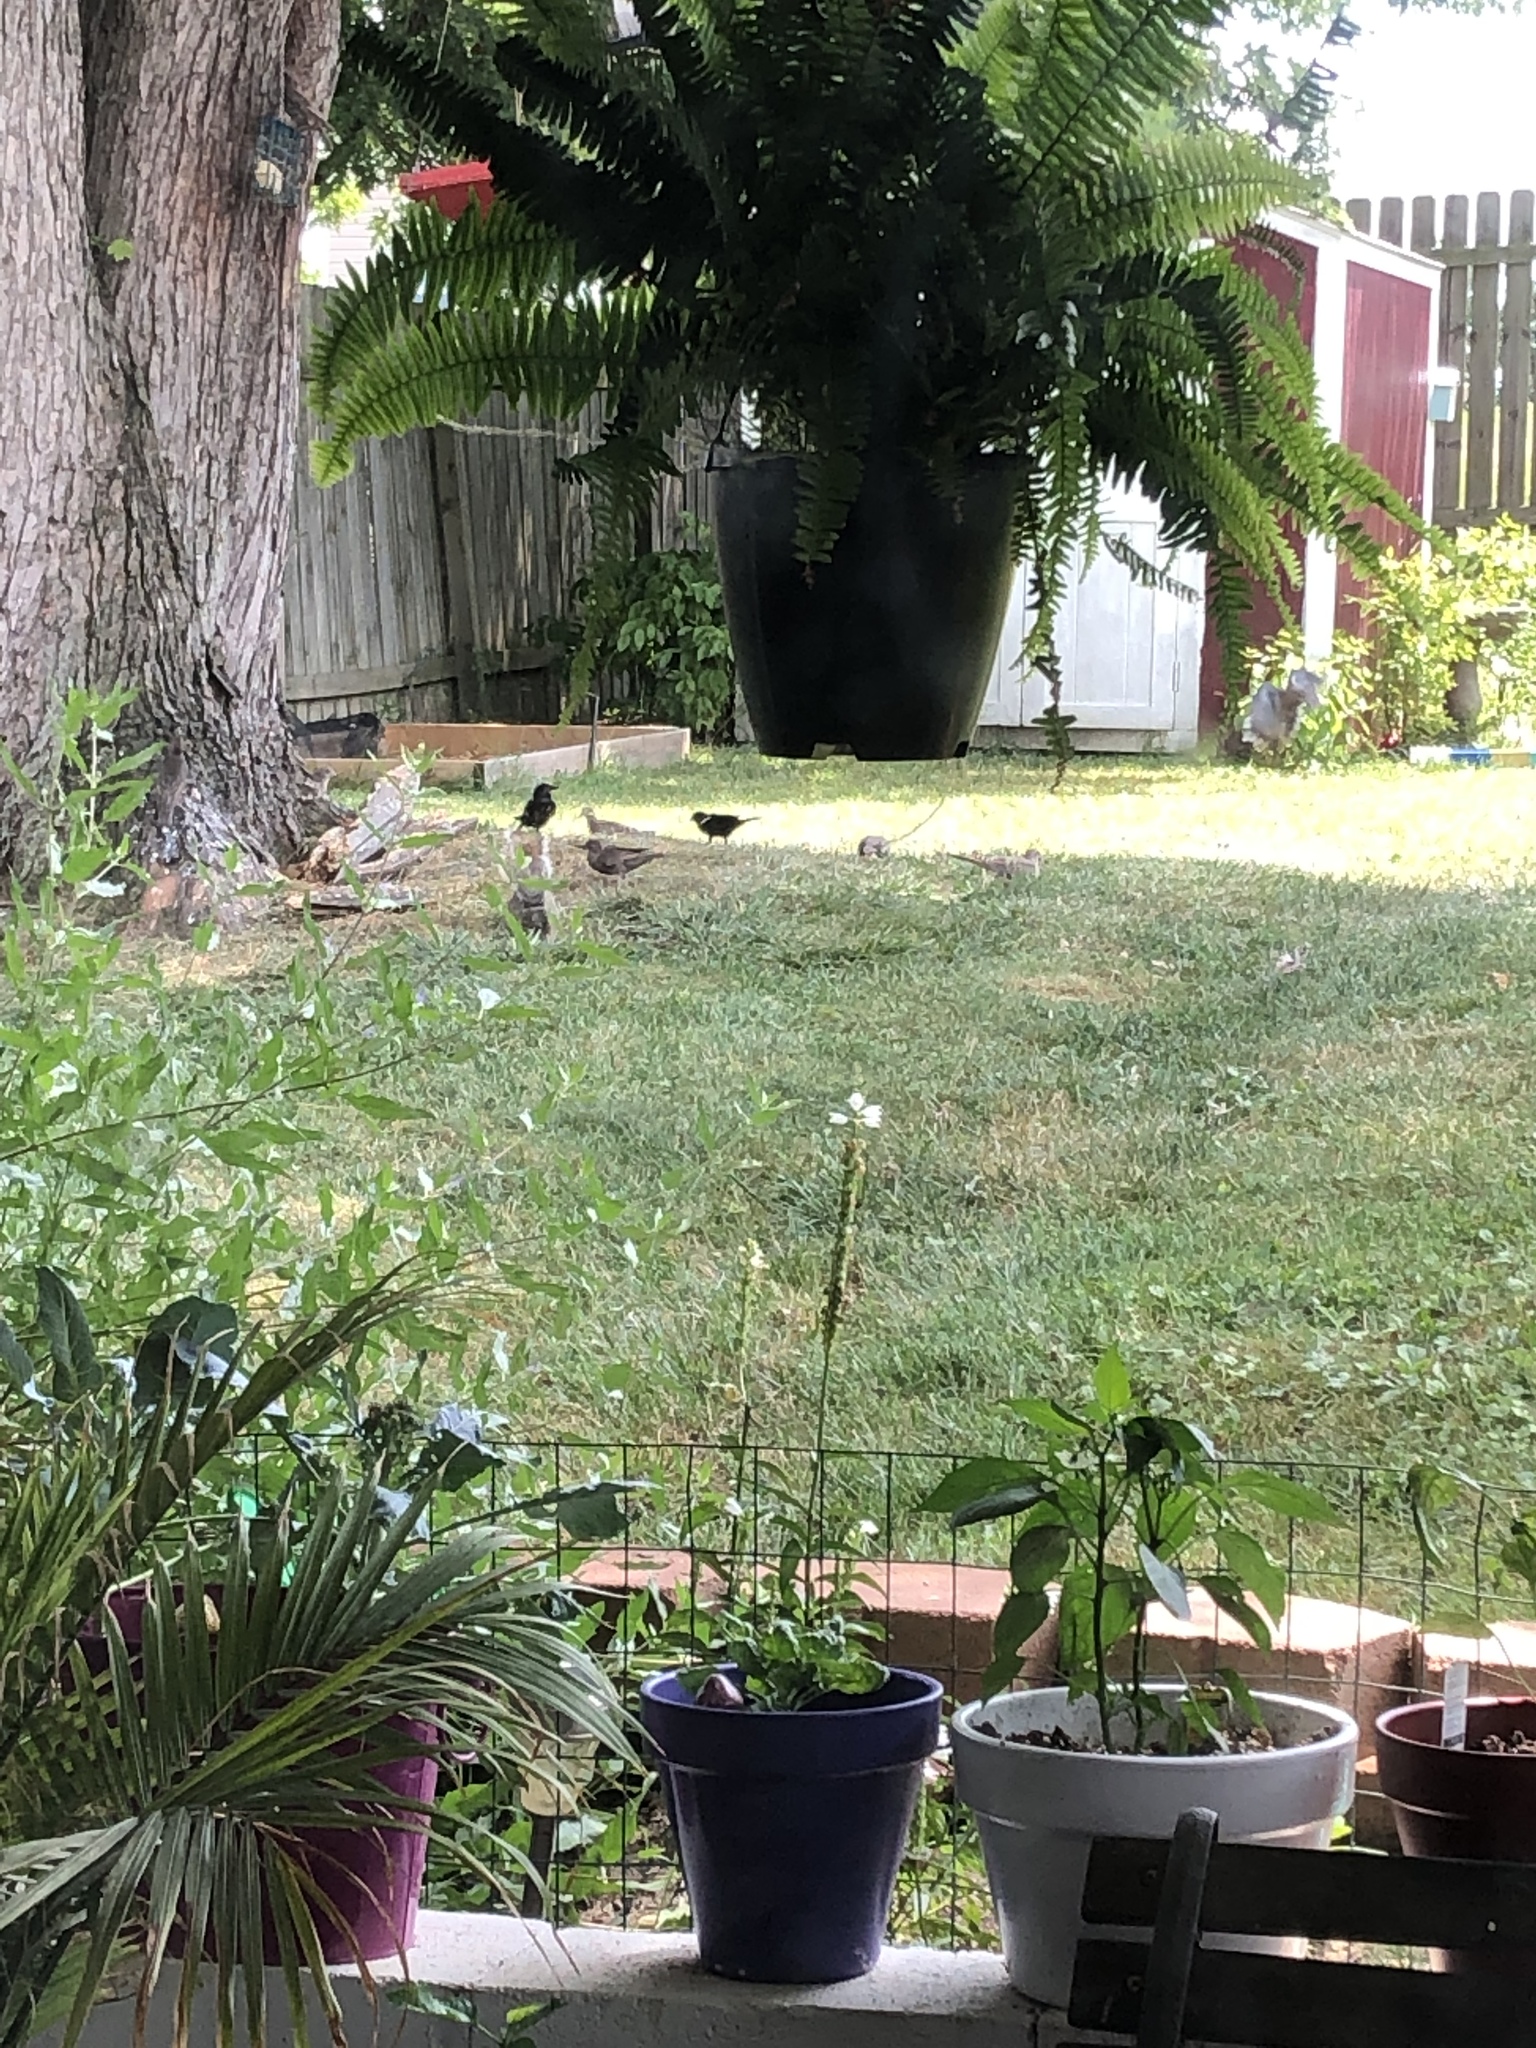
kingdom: Animalia
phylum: Chordata
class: Aves
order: Passeriformes
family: Icteridae
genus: Agelaius
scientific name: Agelaius phoeniceus
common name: Red-winged blackbird
